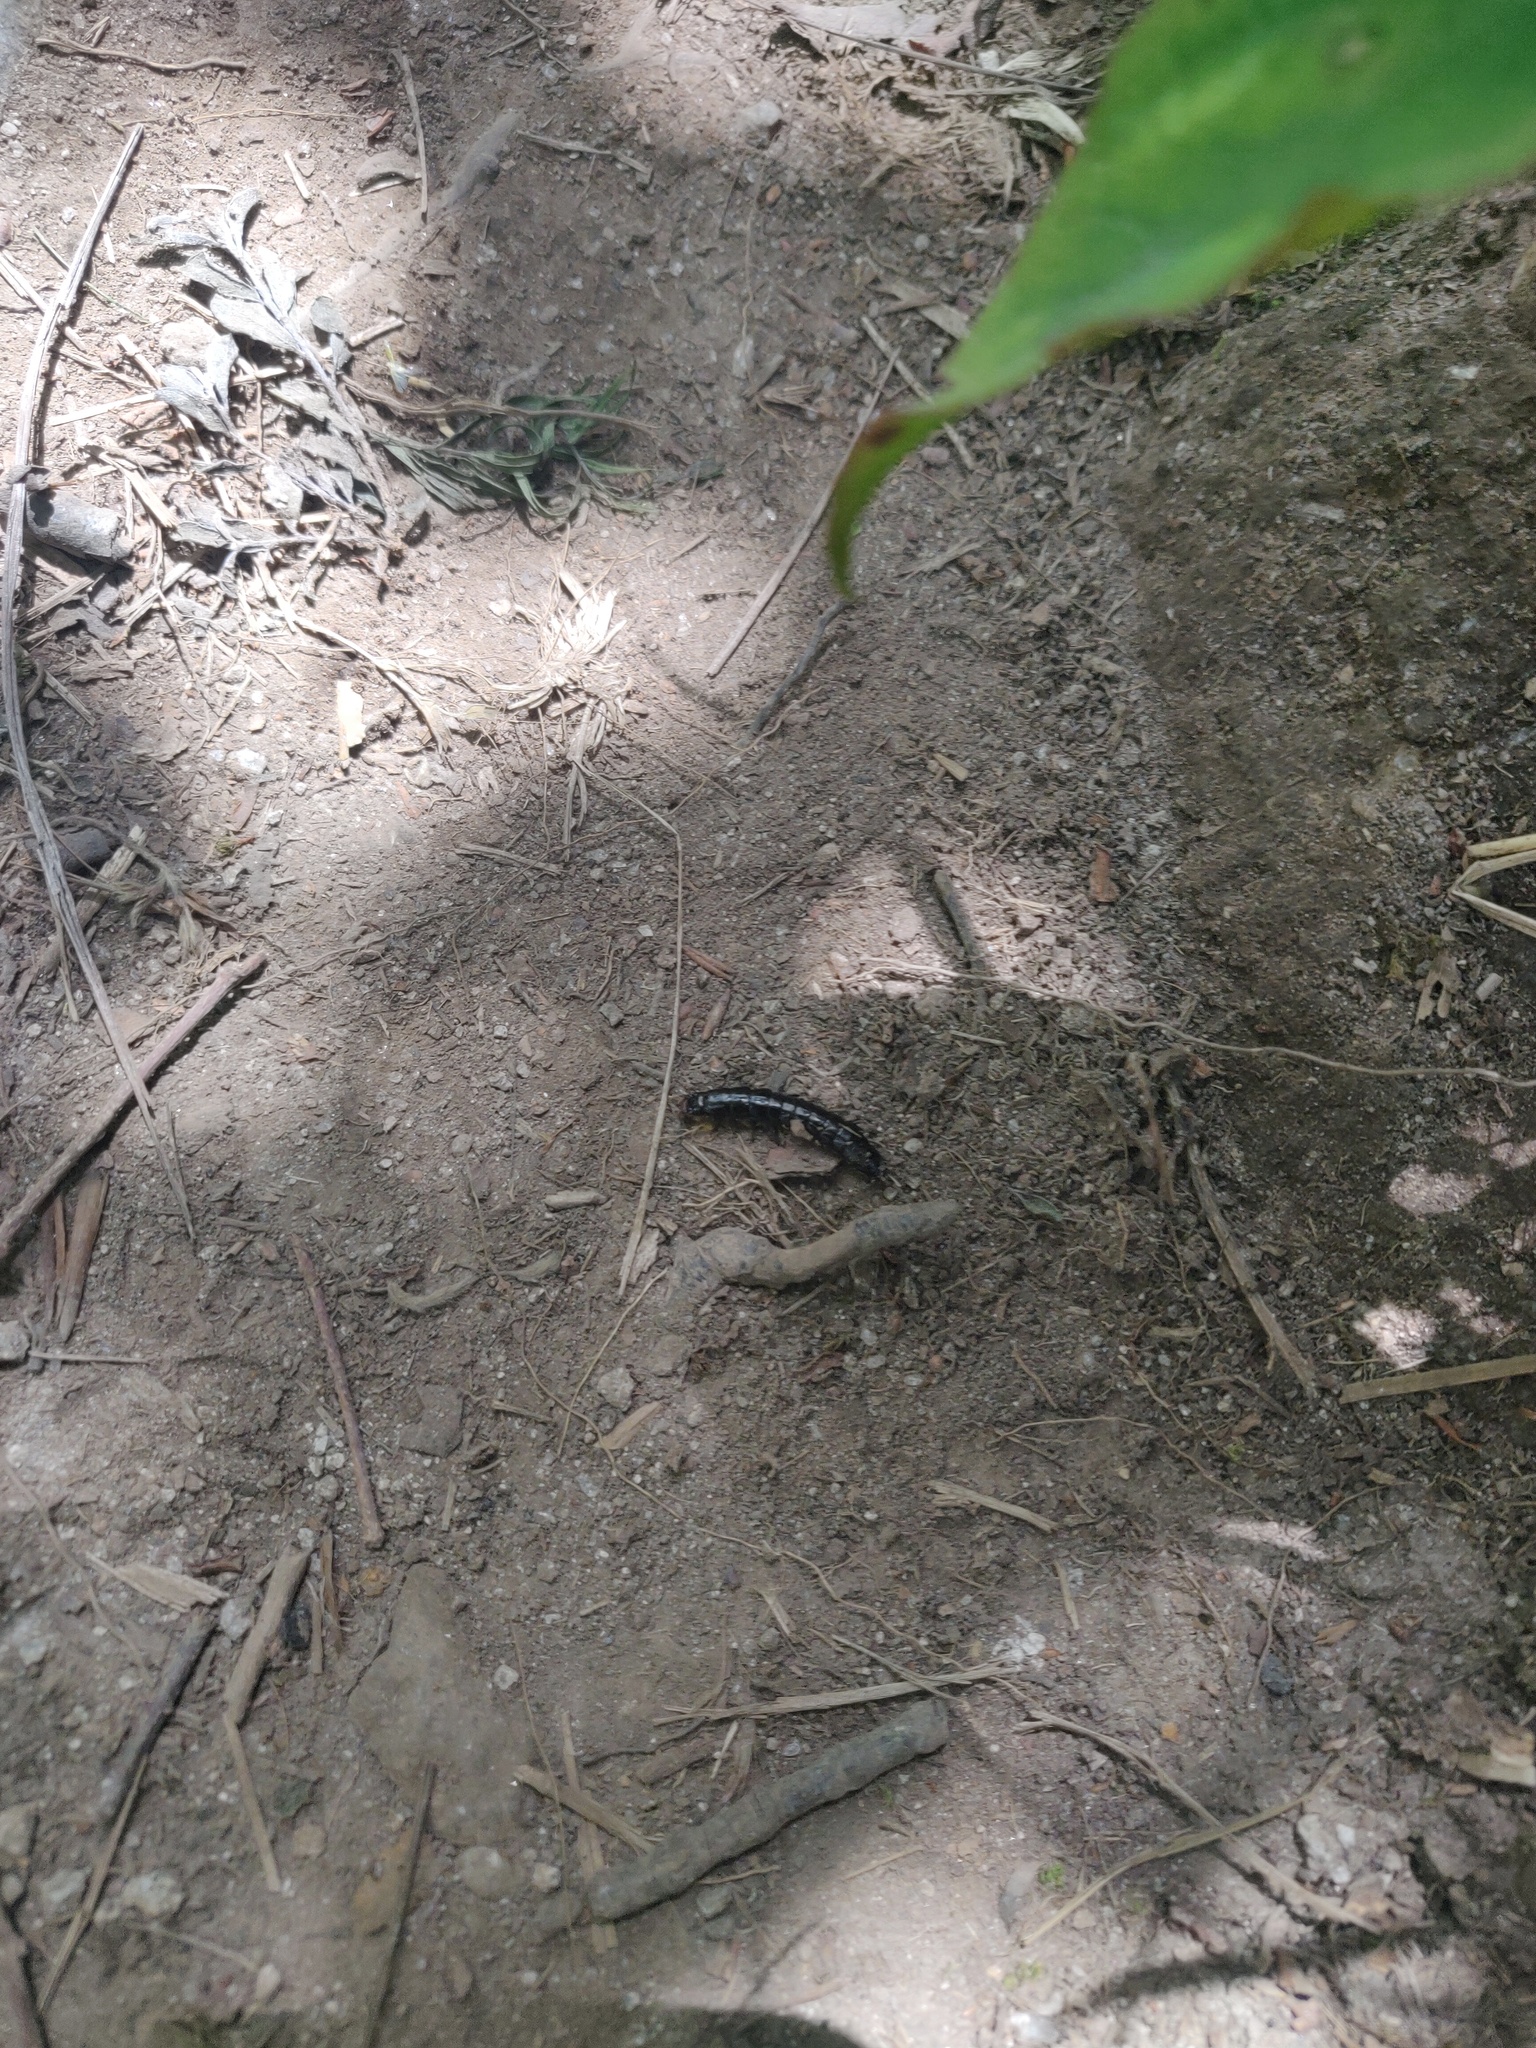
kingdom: Animalia
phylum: Arthropoda
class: Insecta
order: Coleoptera
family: Carabidae
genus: Carabus
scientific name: Carabus
